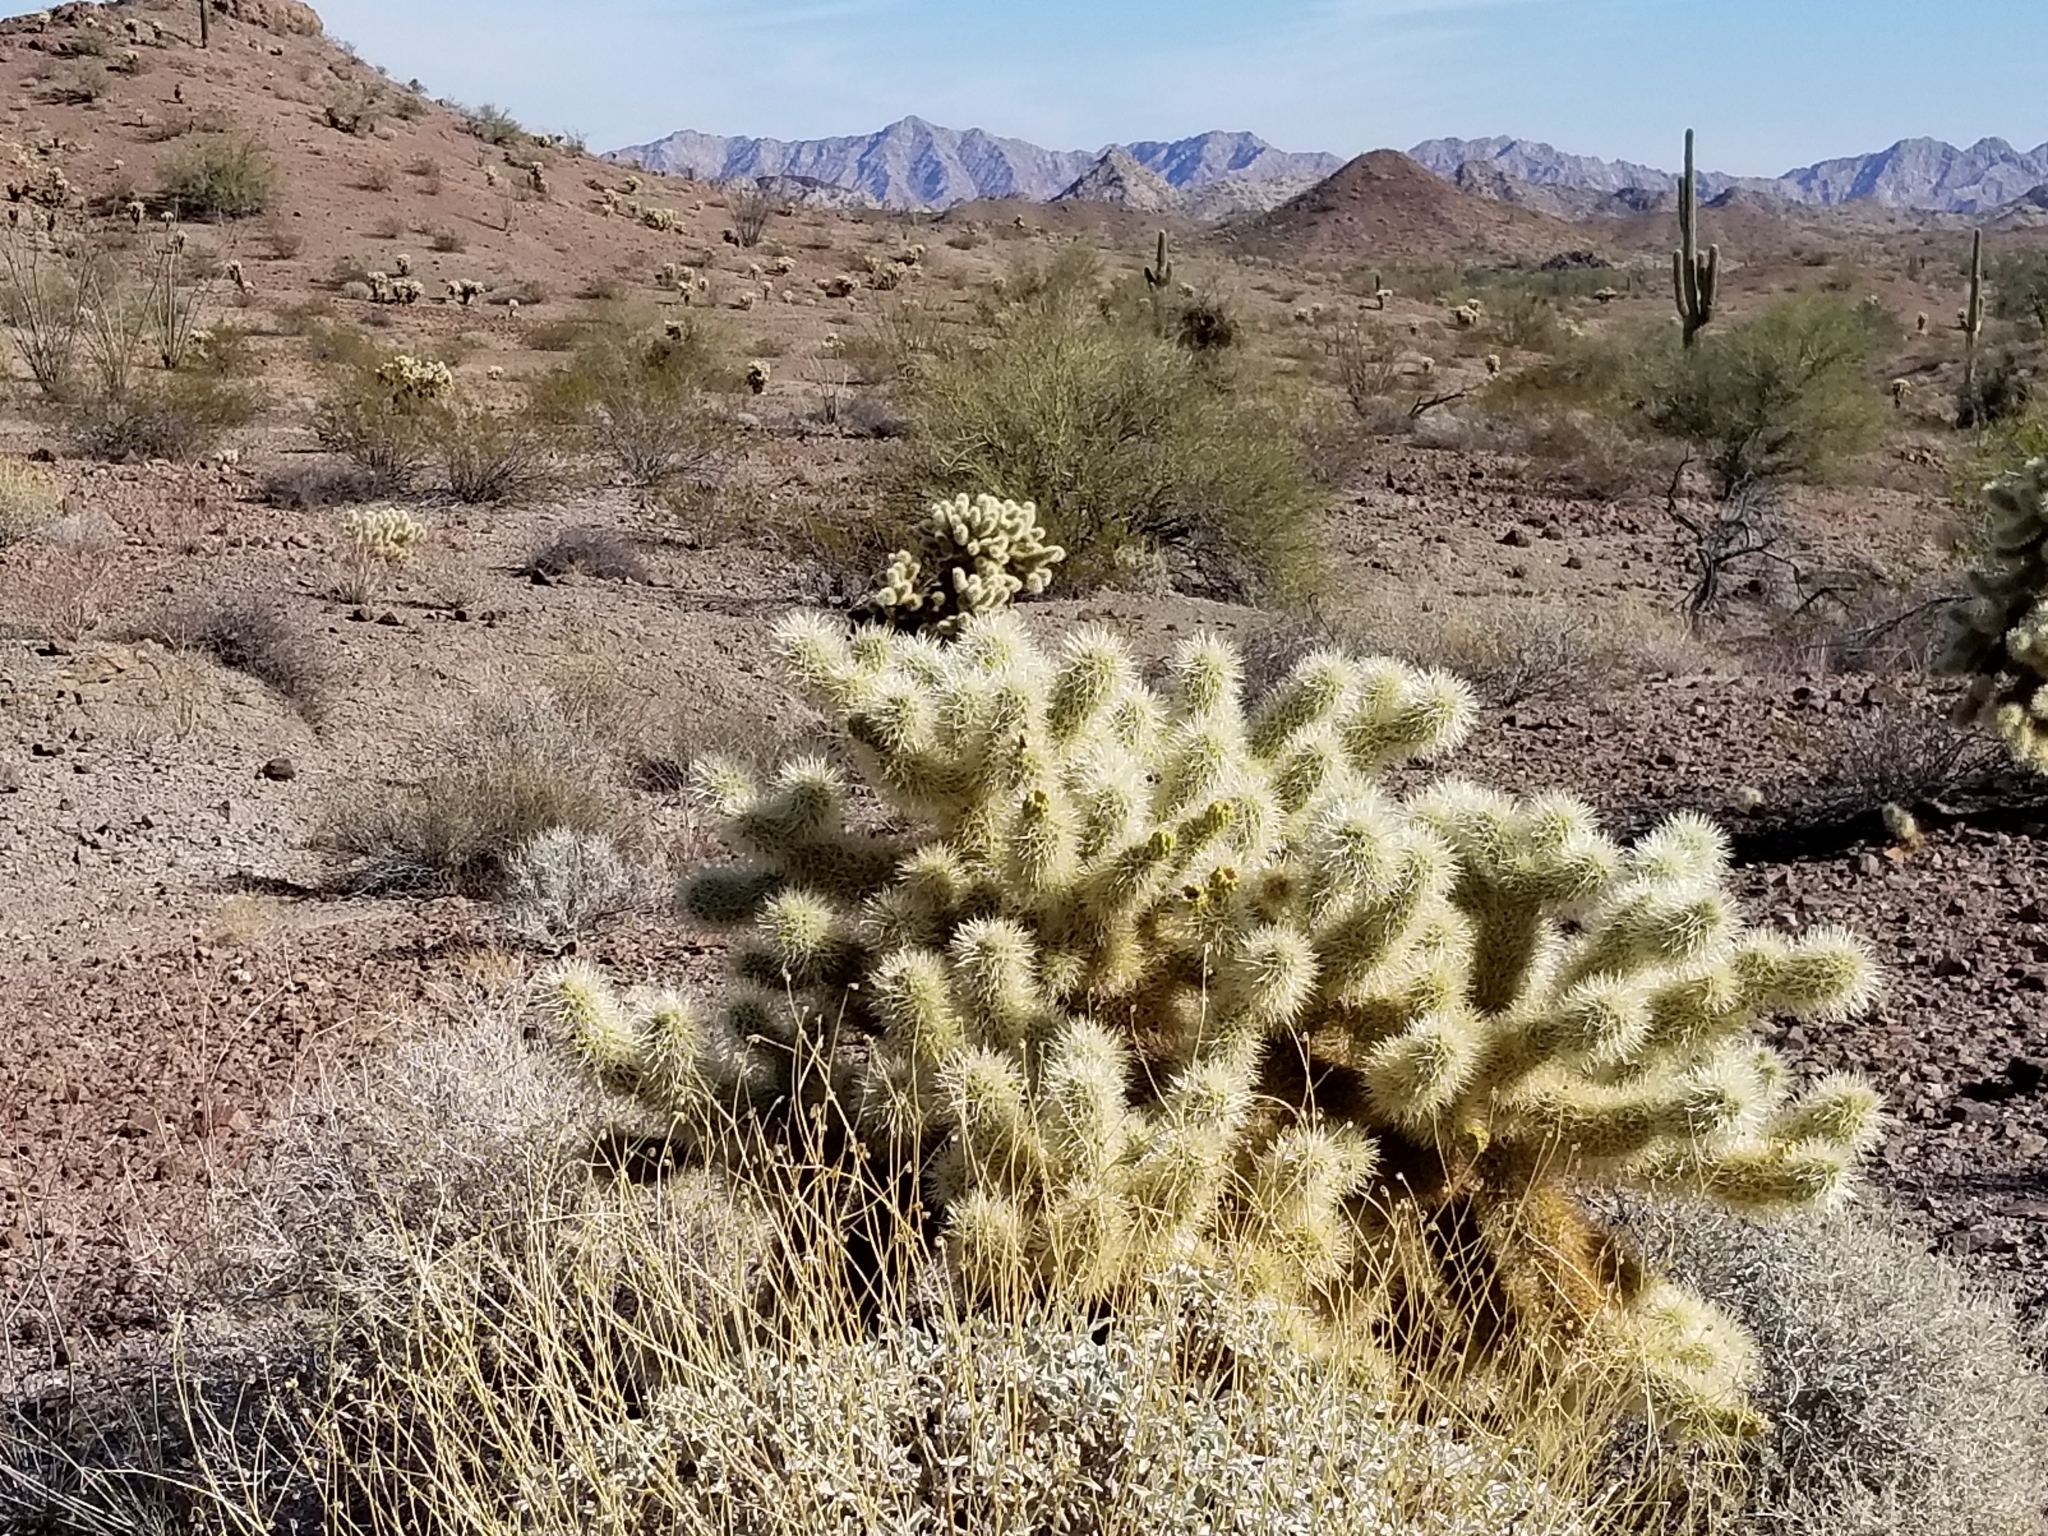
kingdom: Plantae
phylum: Tracheophyta
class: Magnoliopsida
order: Caryophyllales
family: Cactaceae
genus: Cylindropuntia
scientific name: Cylindropuntia fosbergii
